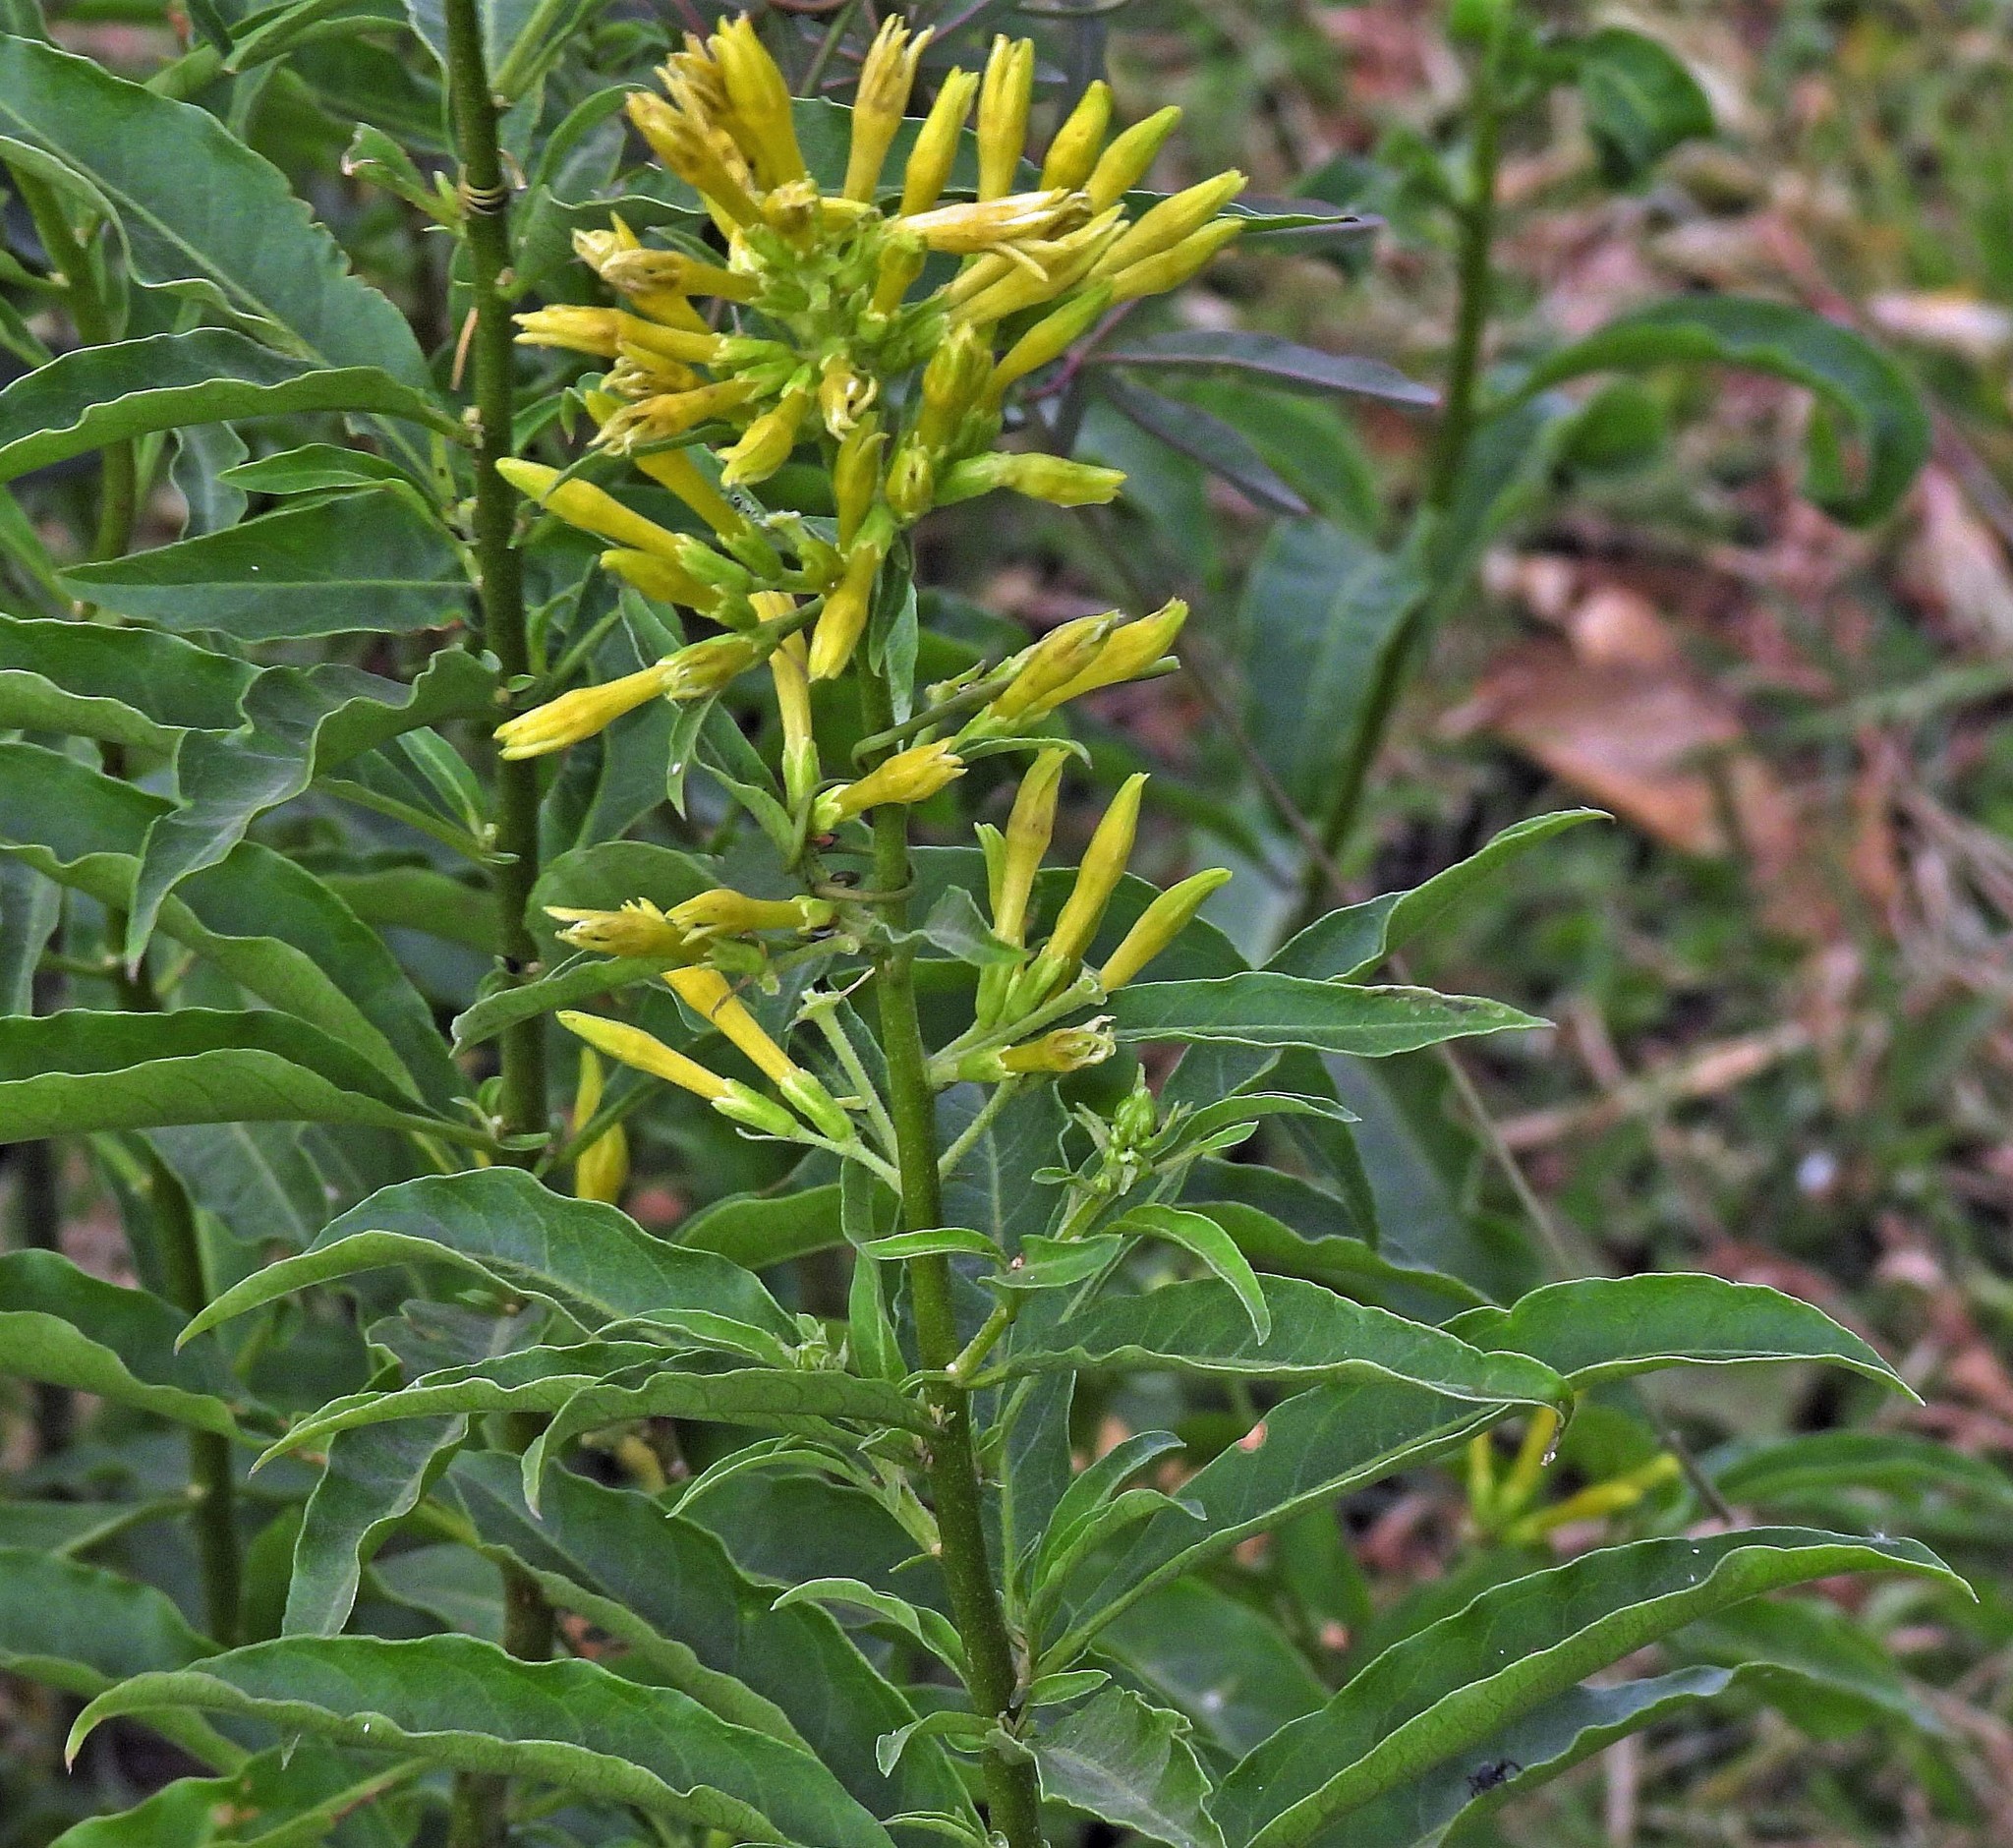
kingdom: Plantae
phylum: Tracheophyta
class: Magnoliopsida
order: Solanales
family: Solanaceae
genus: Cestrum
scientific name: Cestrum parqui
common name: Chilean cestrum
